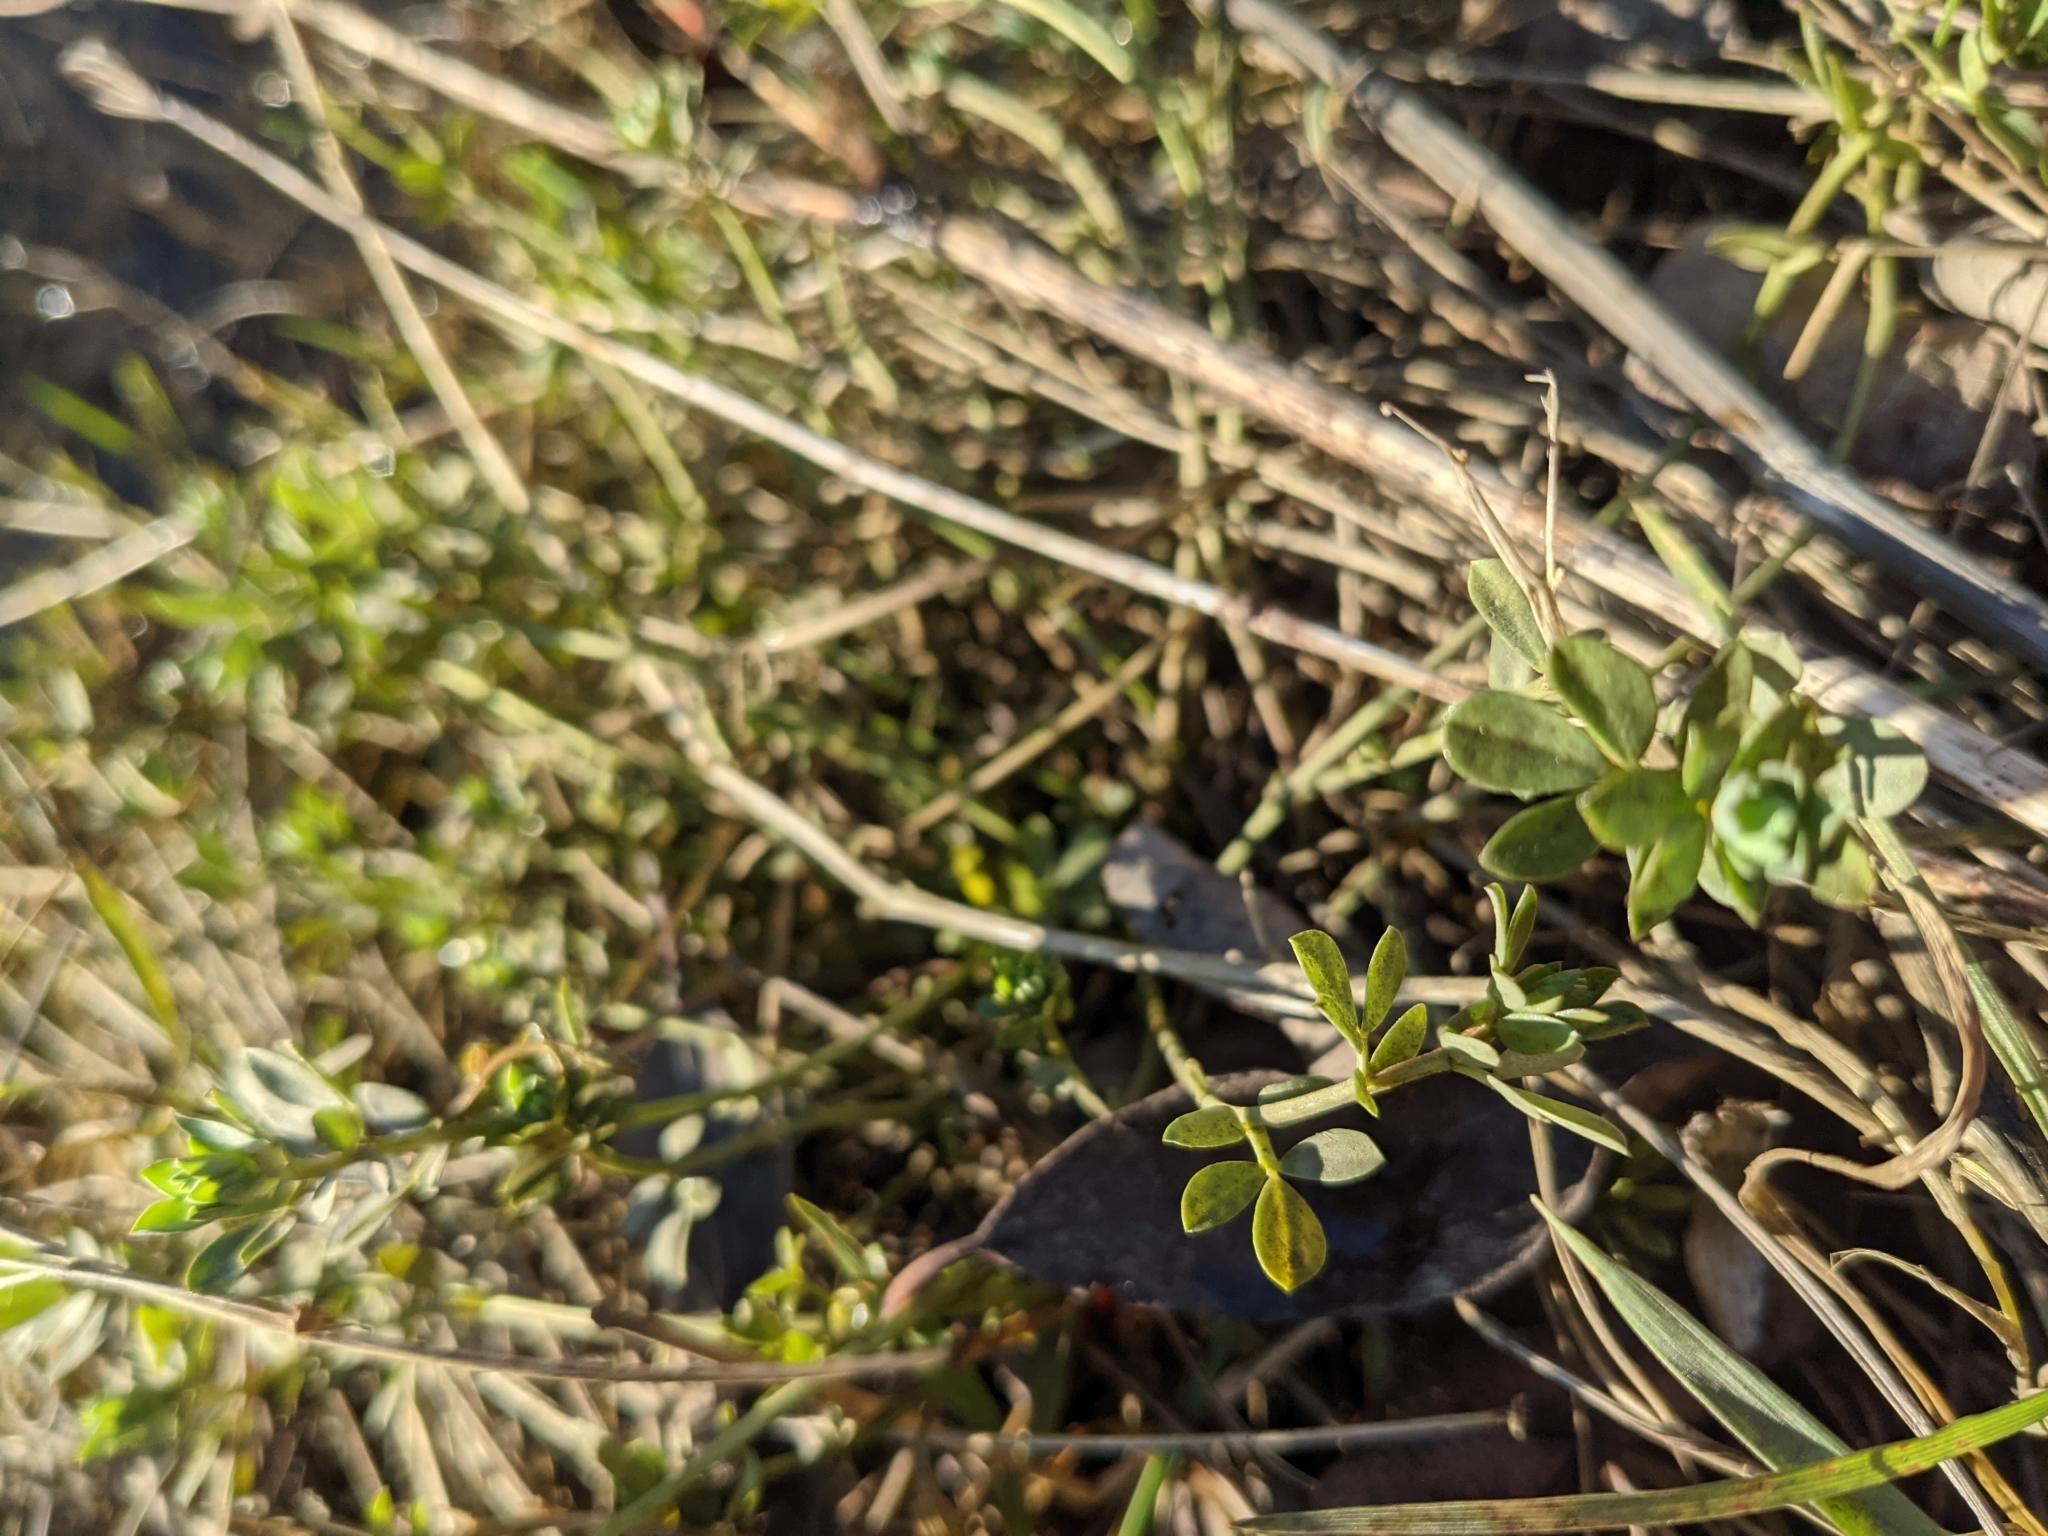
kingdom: Plantae
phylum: Tracheophyta
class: Magnoliopsida
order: Fabales
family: Fabaceae
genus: Lotus
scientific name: Lotus corniculatus
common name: Common bird's-foot-trefoil
